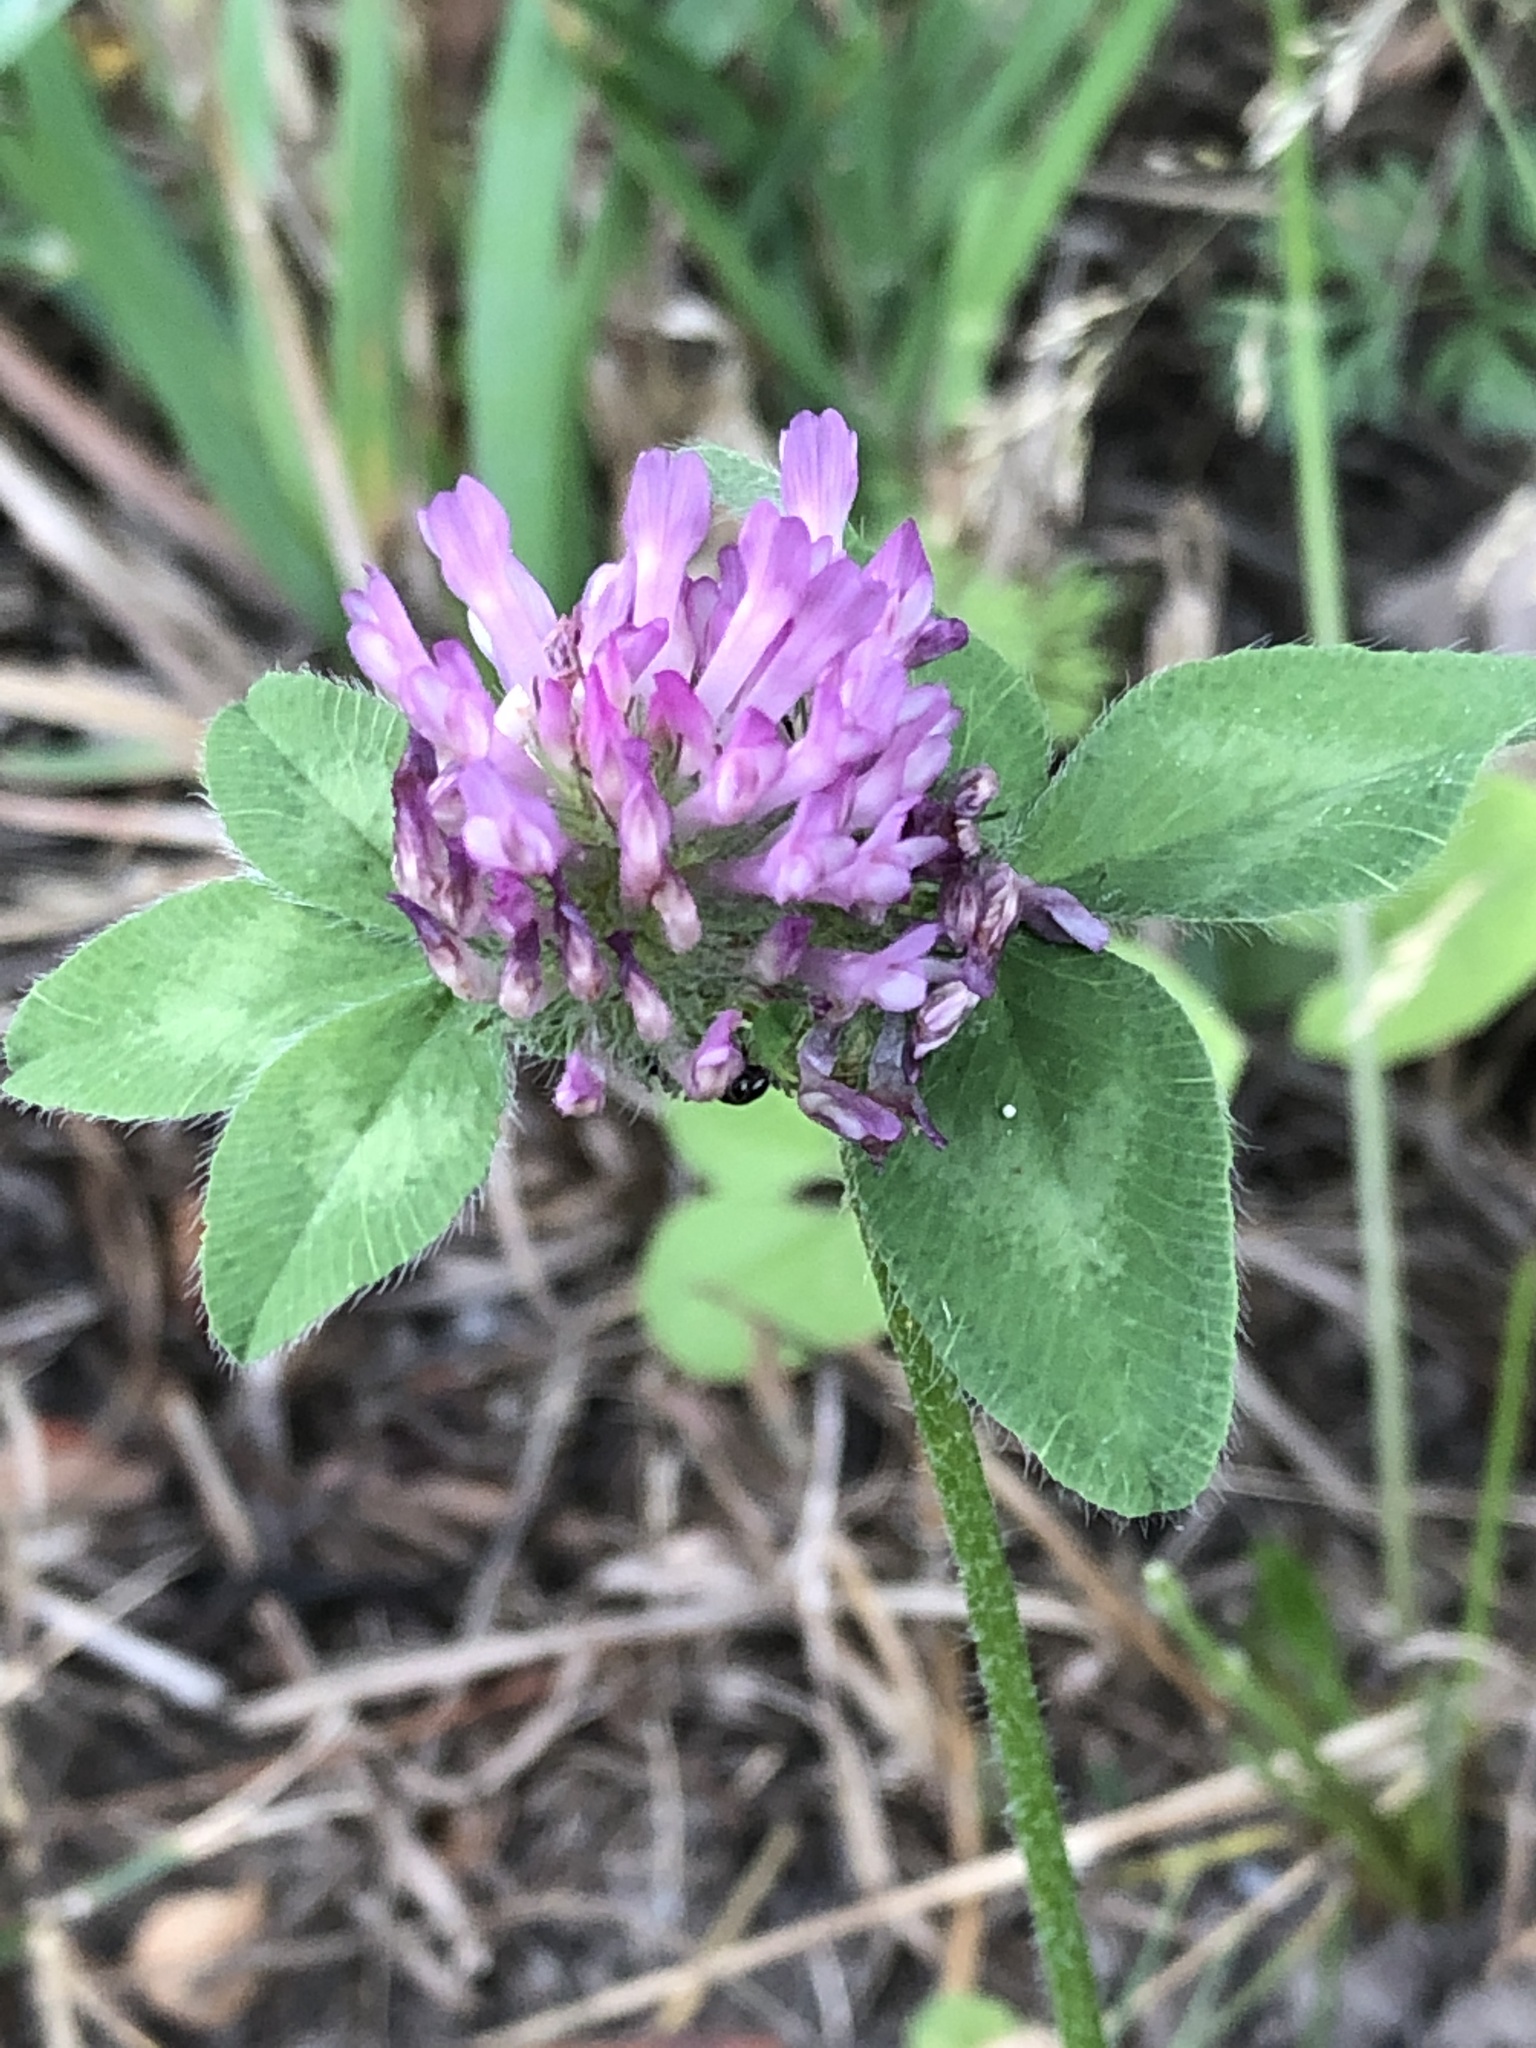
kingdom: Plantae
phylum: Tracheophyta
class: Magnoliopsida
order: Fabales
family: Fabaceae
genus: Trifolium
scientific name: Trifolium pratense
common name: Red clover
